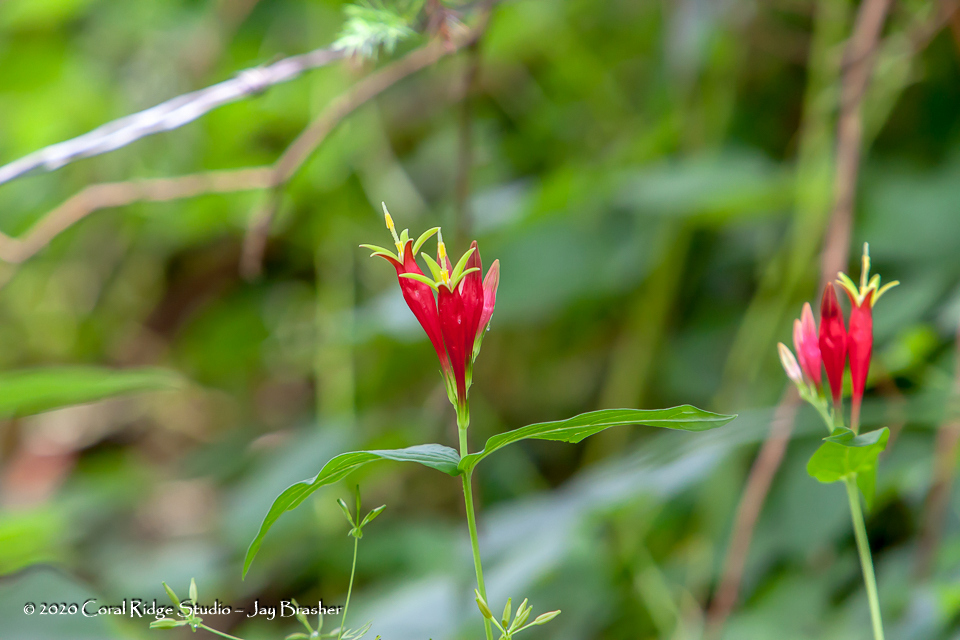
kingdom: Plantae
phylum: Tracheophyta
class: Magnoliopsida
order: Gentianales
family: Loganiaceae
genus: Spigelia
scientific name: Spigelia marilandica
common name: Indian-pink
